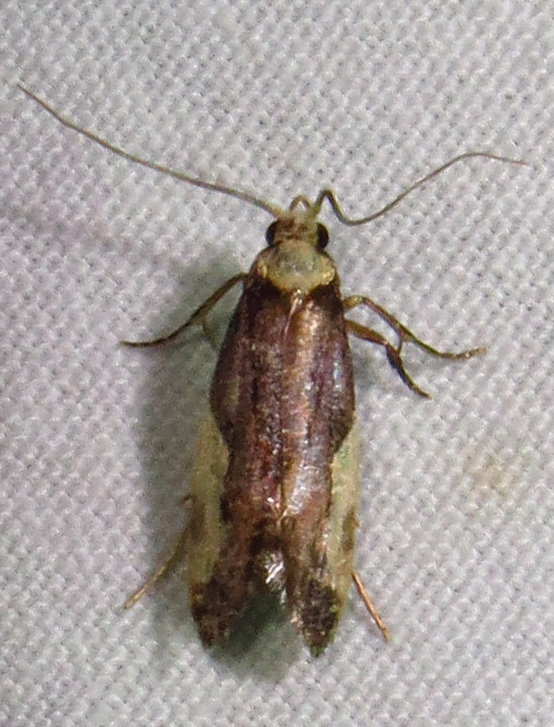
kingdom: Animalia
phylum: Arthropoda
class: Insecta
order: Lepidoptera
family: Tineidae
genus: Monopis
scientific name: Monopis longella
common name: Pavlovski's monopis moth
